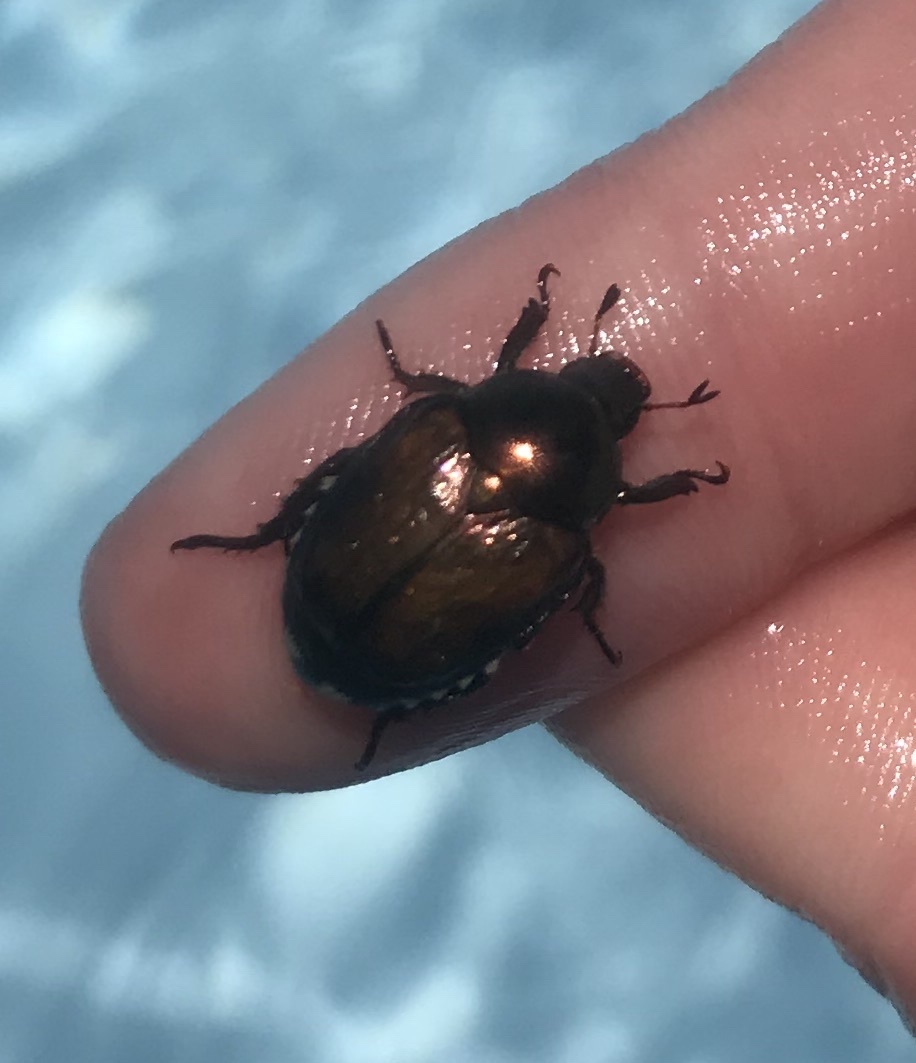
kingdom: Animalia
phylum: Arthropoda
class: Insecta
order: Coleoptera
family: Scarabaeidae
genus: Popillia
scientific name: Popillia japonica
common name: Japanese beetle
